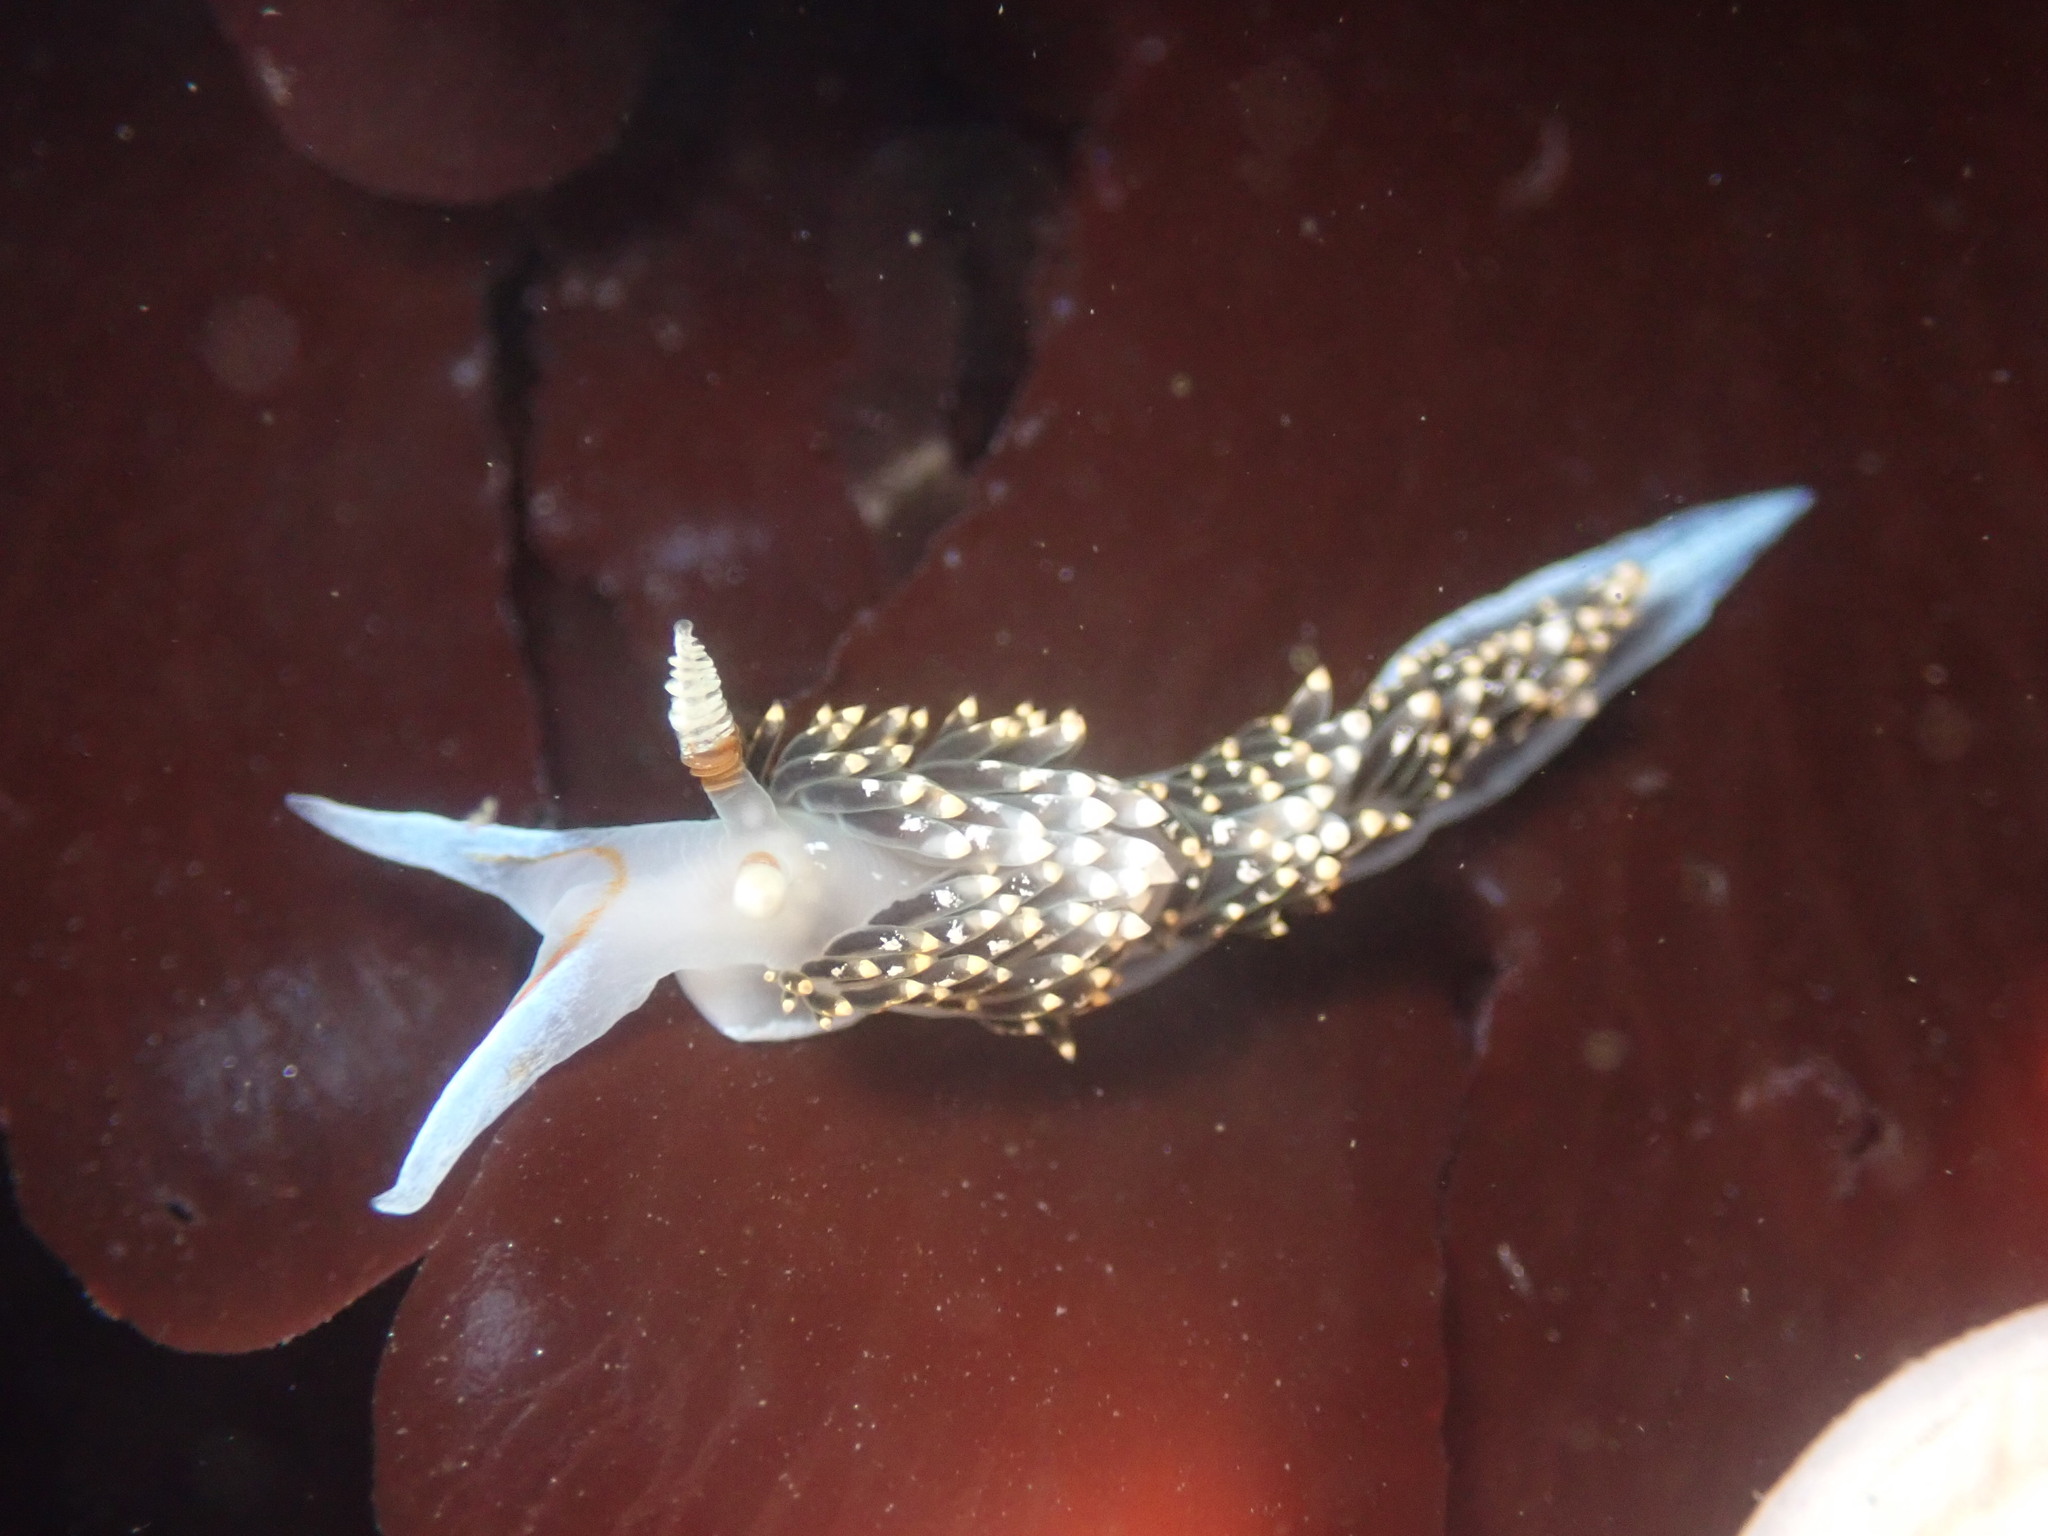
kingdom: Animalia
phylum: Mollusca
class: Gastropoda
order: Nudibranchia
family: Facelinidae
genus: Phidiana
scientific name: Phidiana hiltoni
